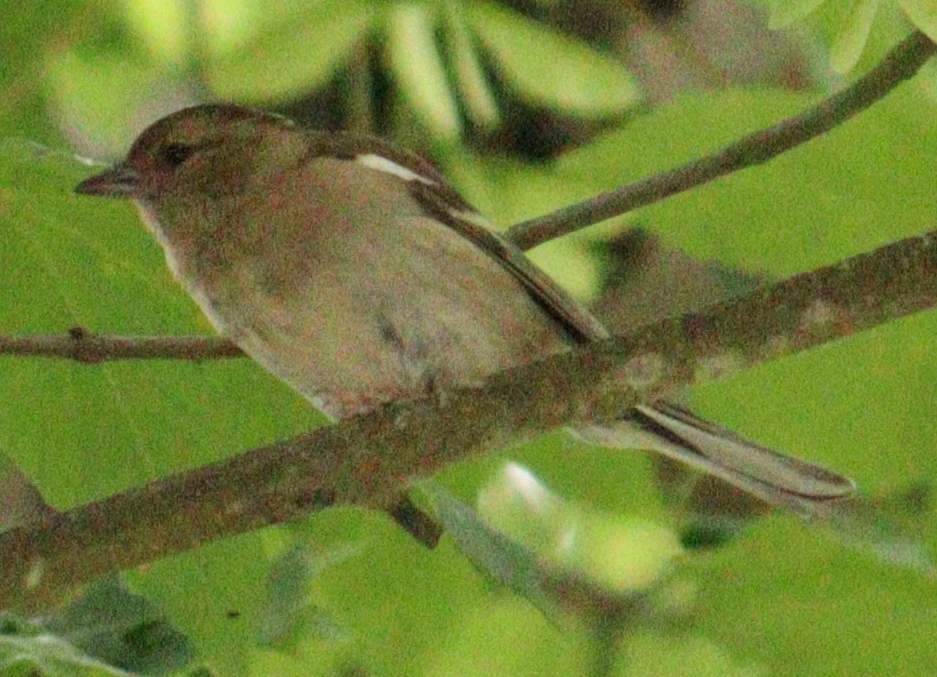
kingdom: Animalia
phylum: Chordata
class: Aves
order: Passeriformes
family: Fringillidae
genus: Fringilla
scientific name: Fringilla coelebs
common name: Common chaffinch
